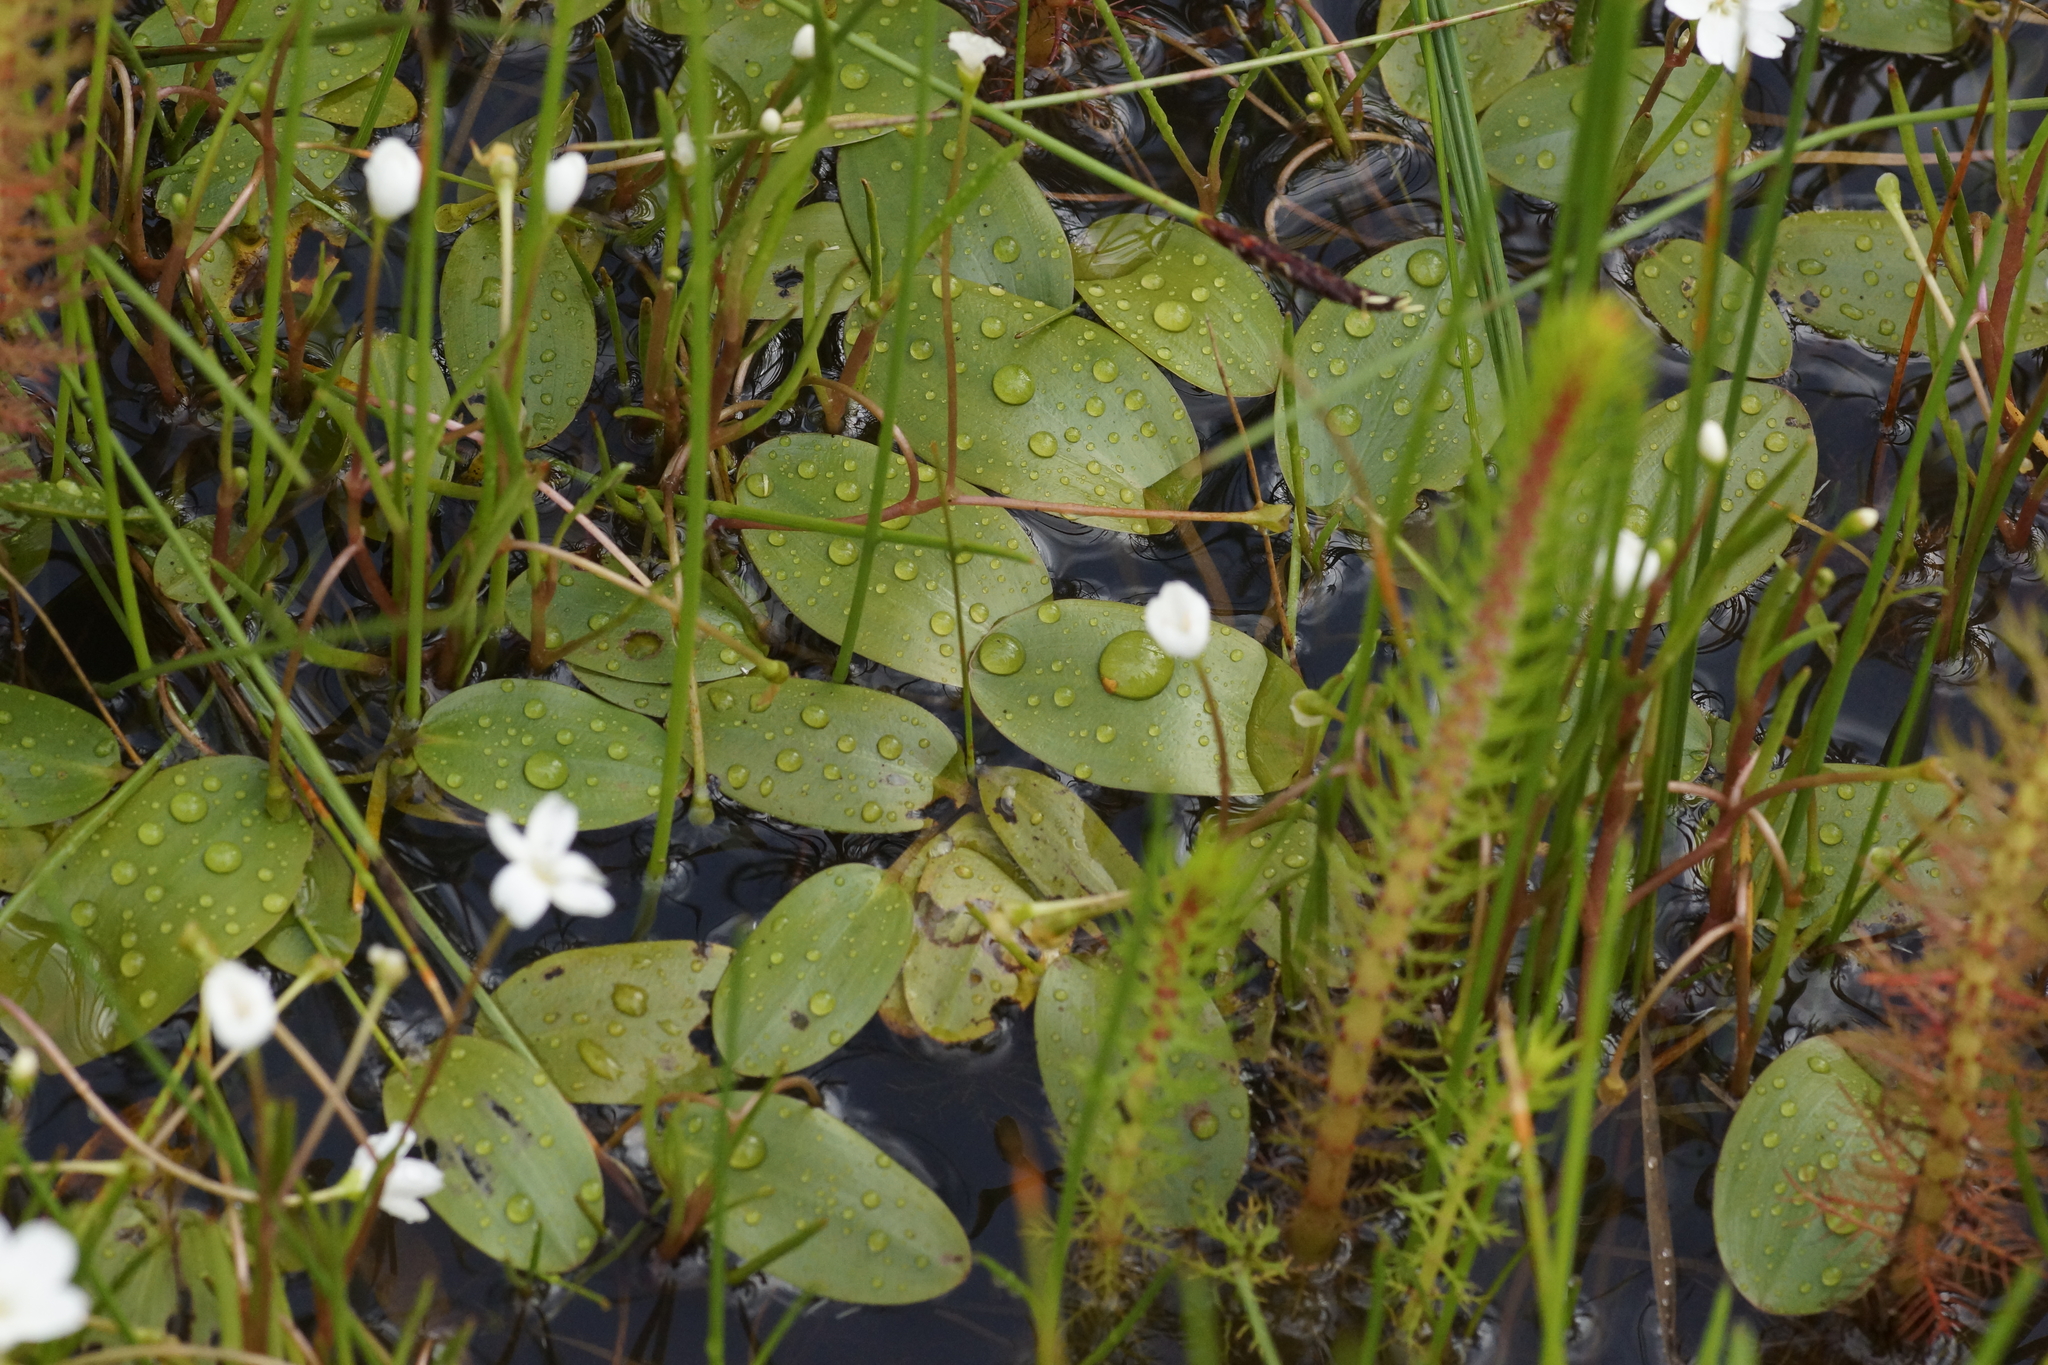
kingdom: Plantae
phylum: Tracheophyta
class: Liliopsida
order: Alismatales
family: Potamogetonaceae
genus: Potamogeton
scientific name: Potamogeton cheesemanii
